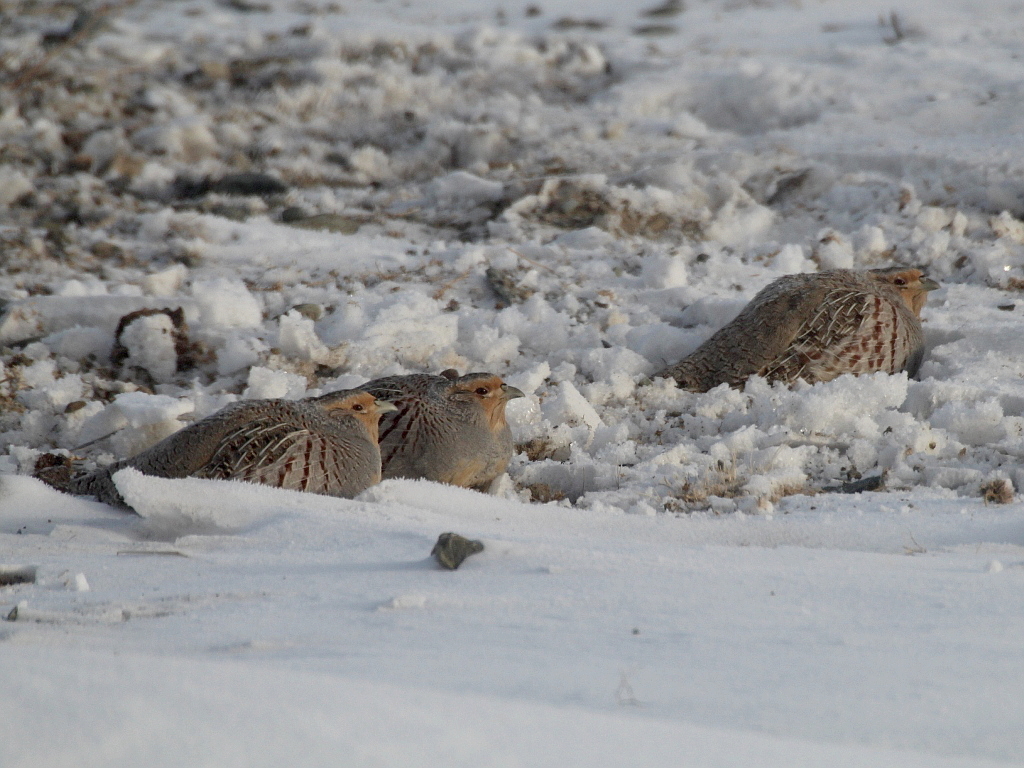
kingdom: Animalia
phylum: Chordata
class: Aves
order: Galliformes
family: Phasianidae
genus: Perdix
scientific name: Perdix dauurica
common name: Daurian partridge
